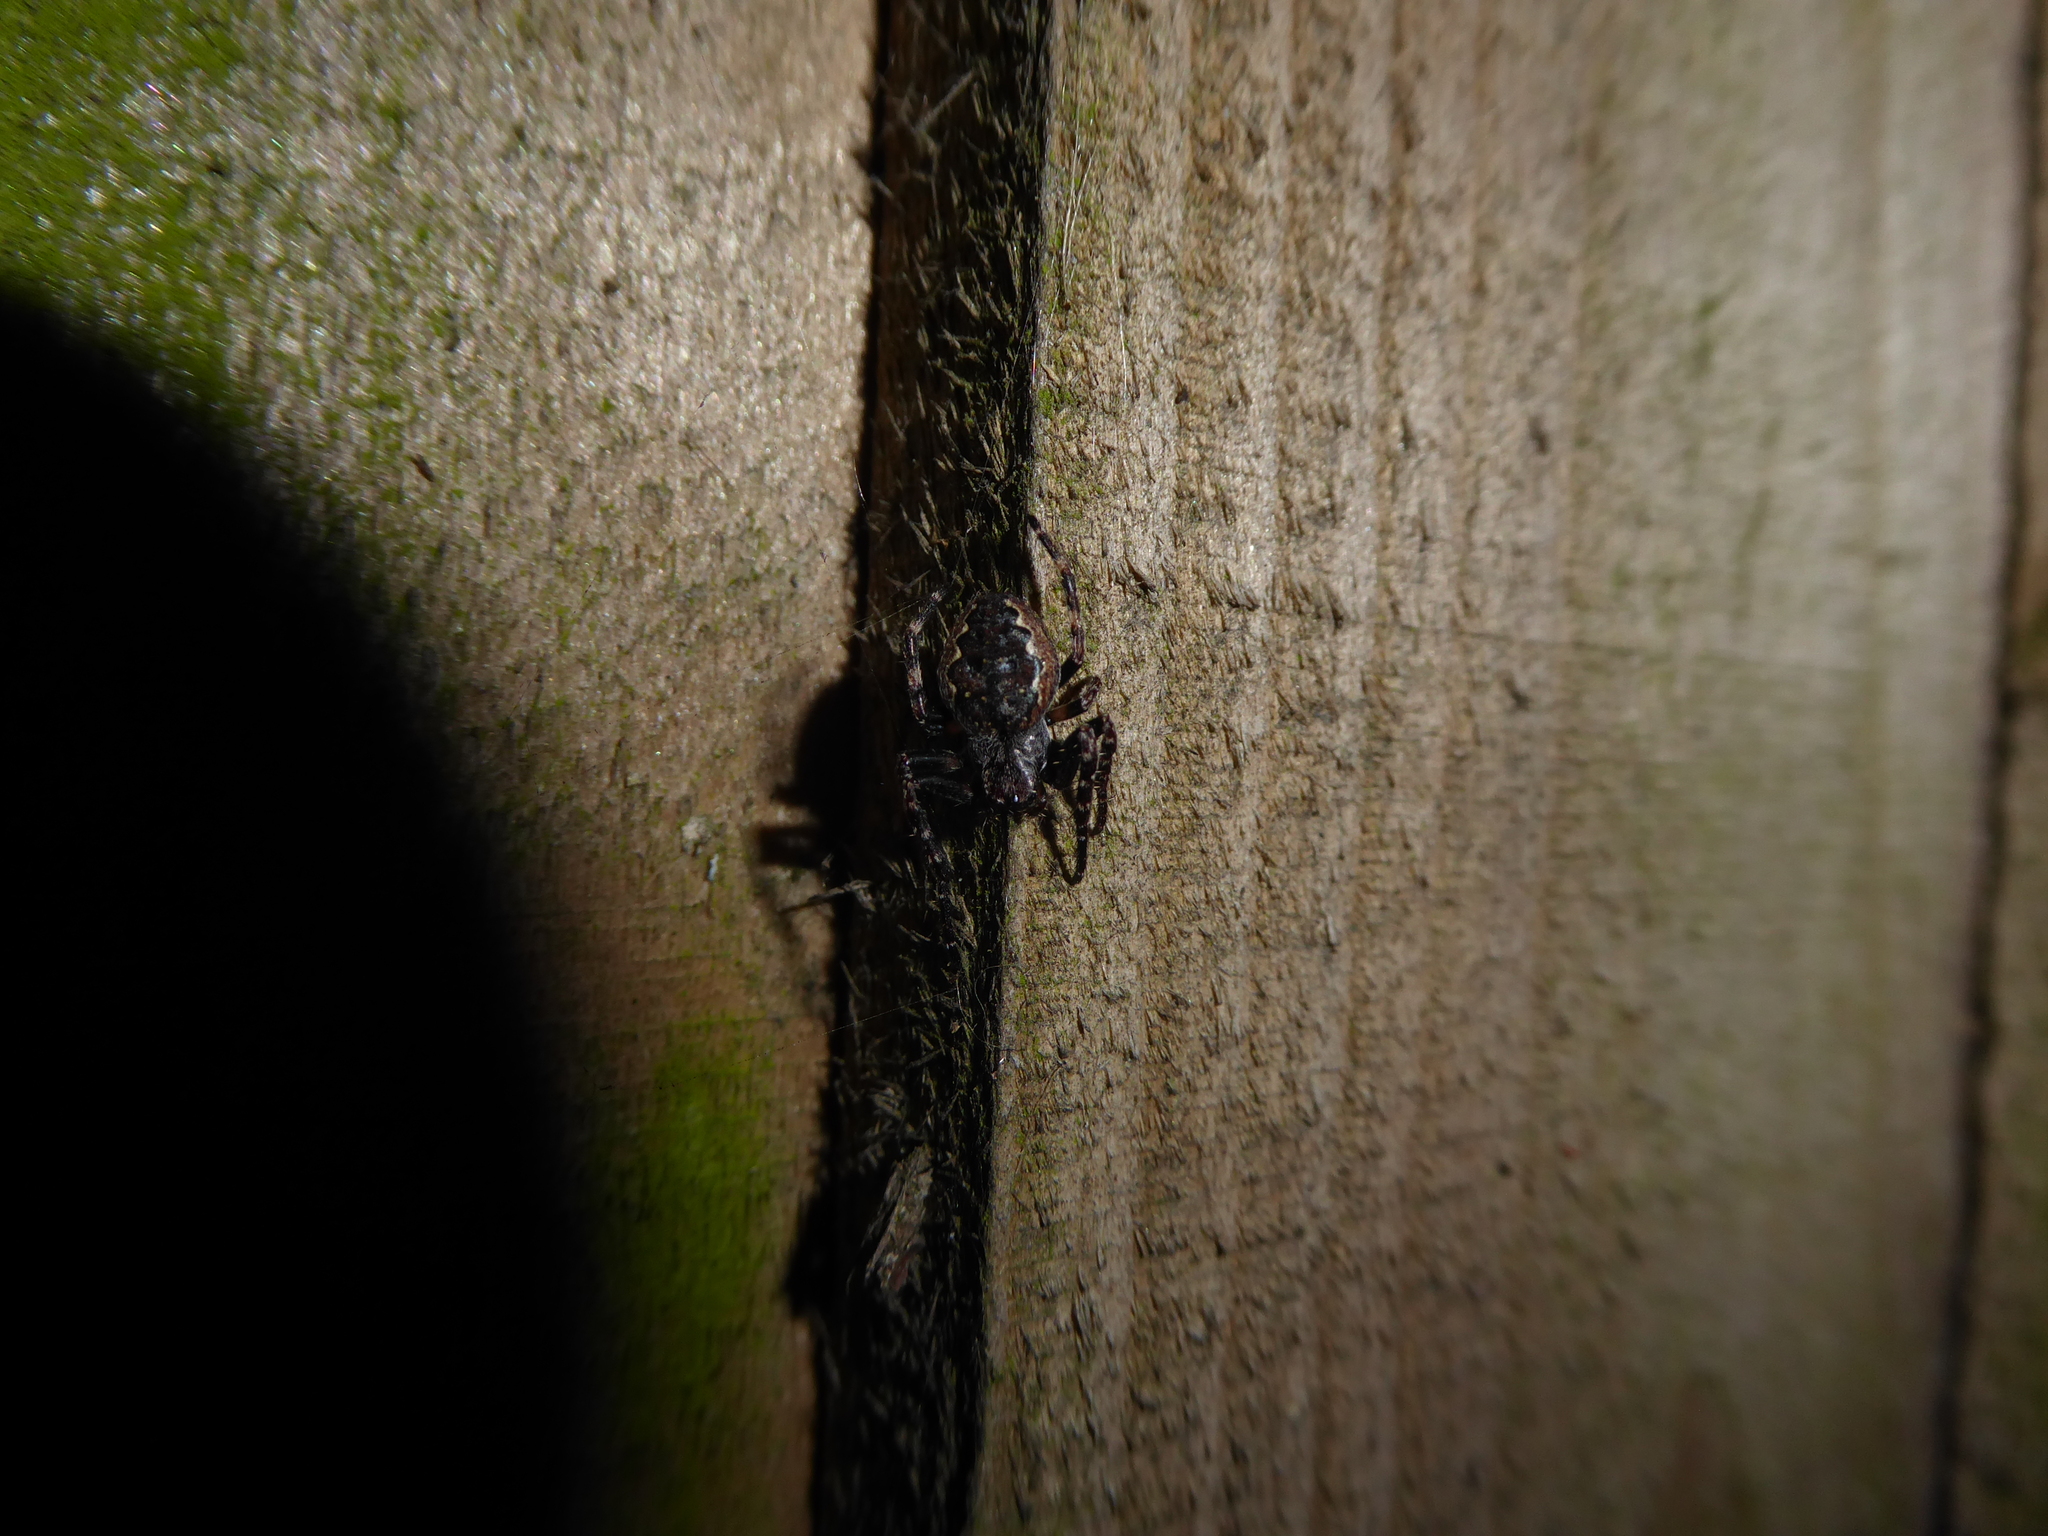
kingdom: Animalia
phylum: Arthropoda
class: Arachnida
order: Araneae
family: Araneidae
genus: Nuctenea
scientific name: Nuctenea umbratica
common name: Toad spider
